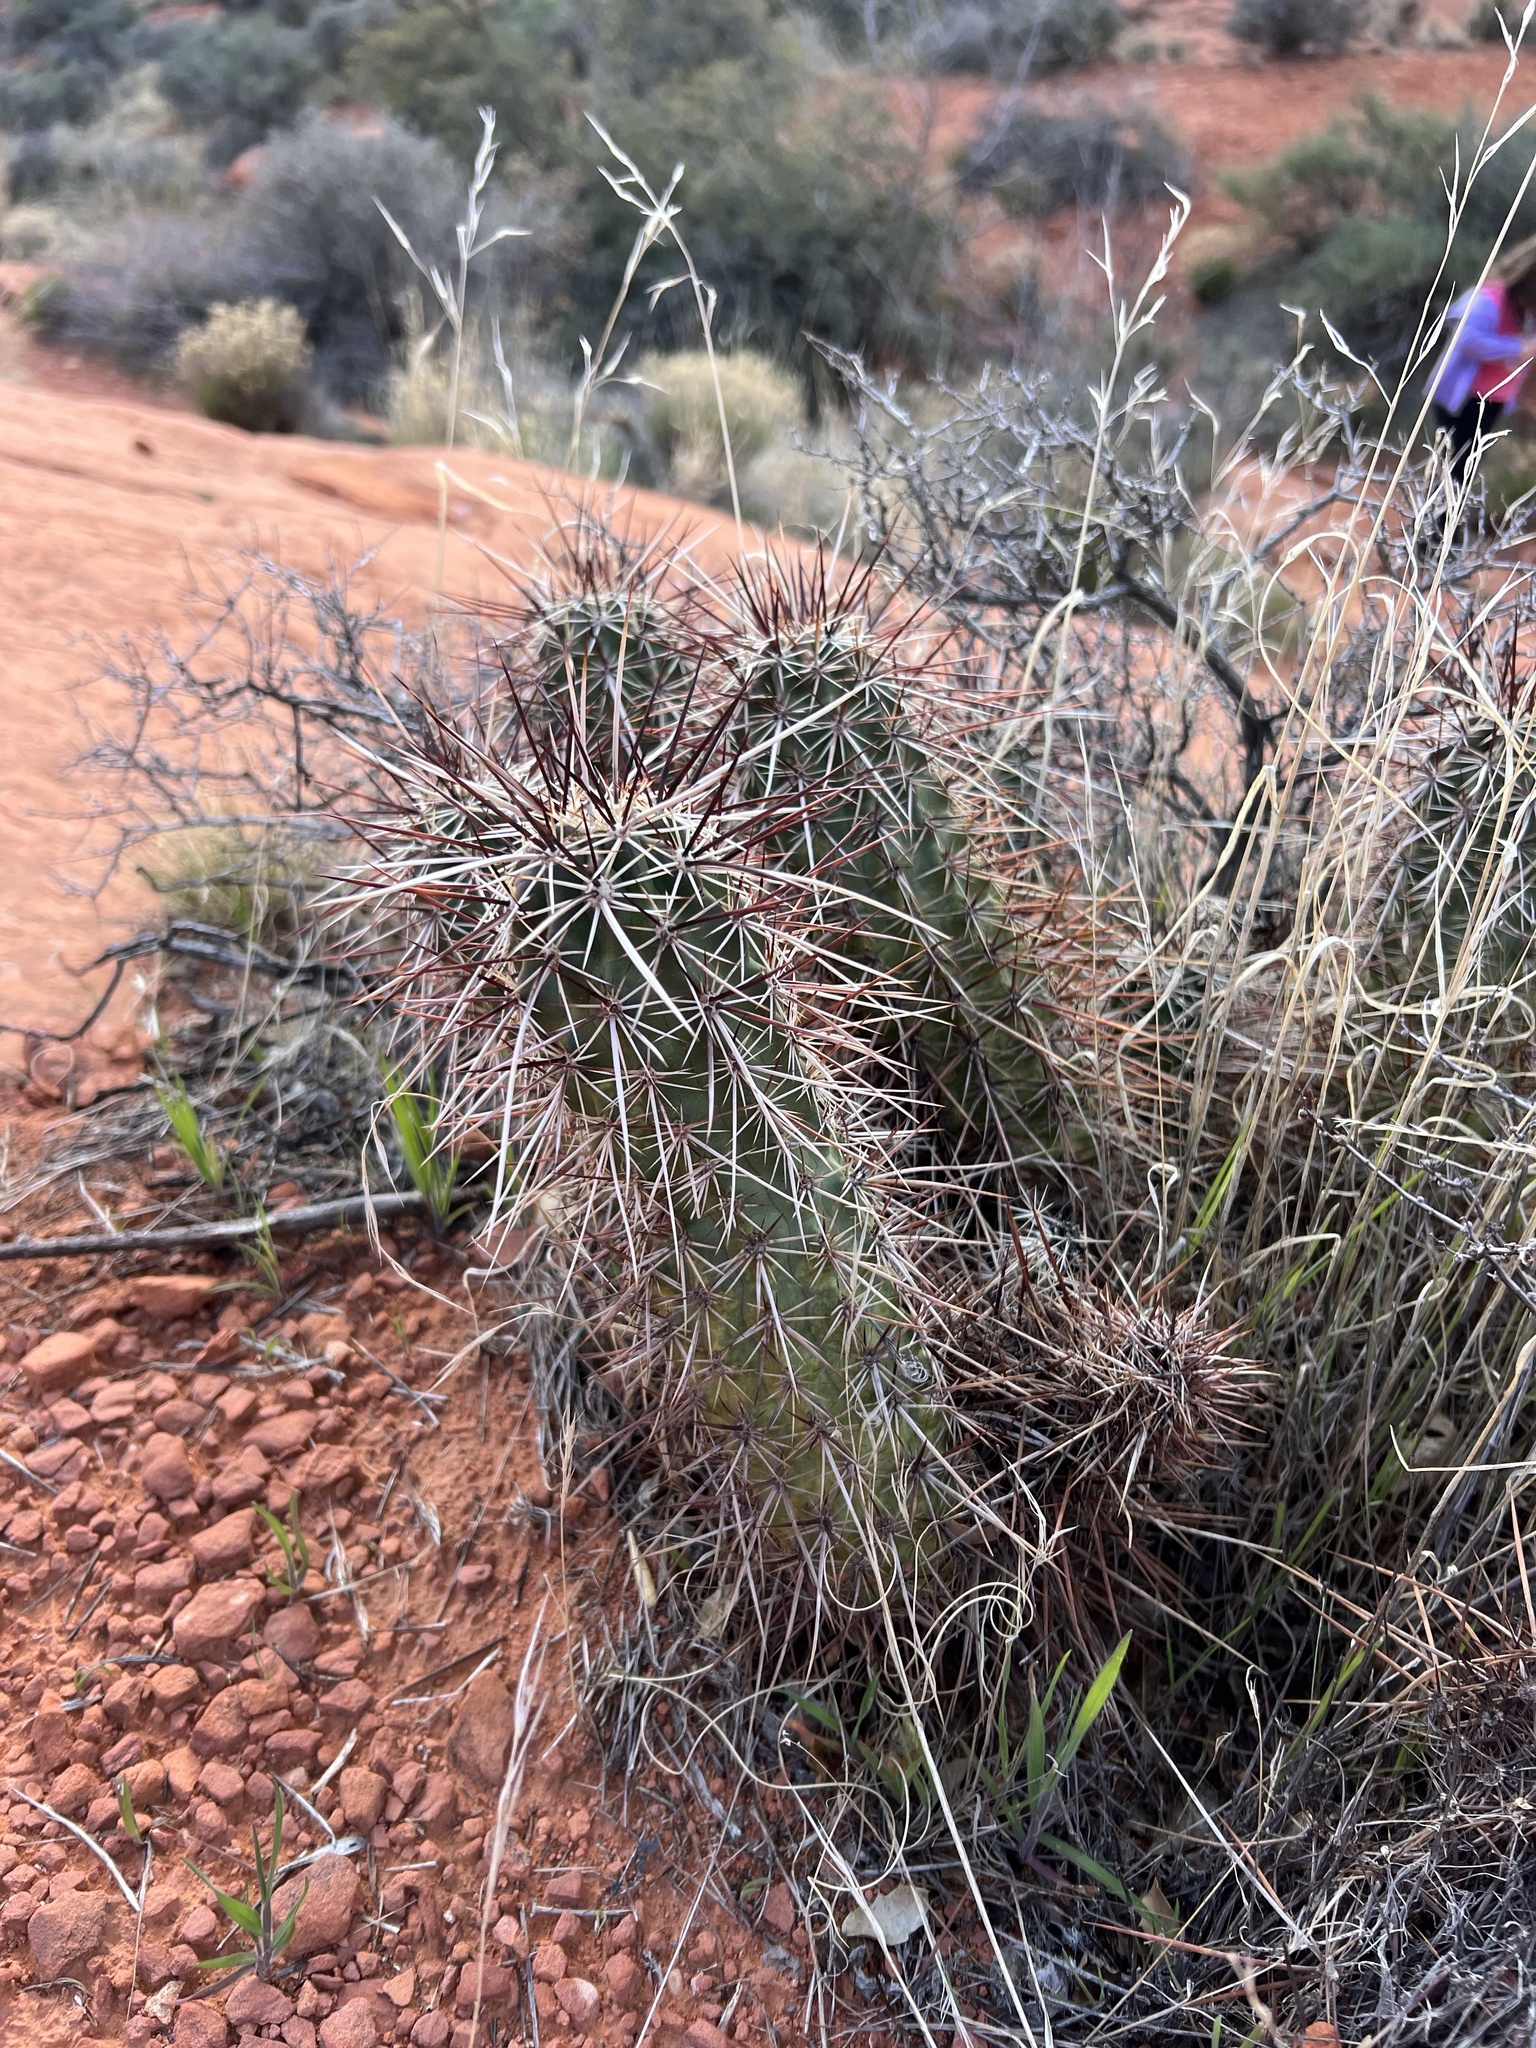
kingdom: Plantae
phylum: Tracheophyta
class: Magnoliopsida
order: Caryophyllales
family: Cactaceae
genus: Echinocereus
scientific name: Echinocereus engelmannii
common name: Engelmann's hedgehog cactus
